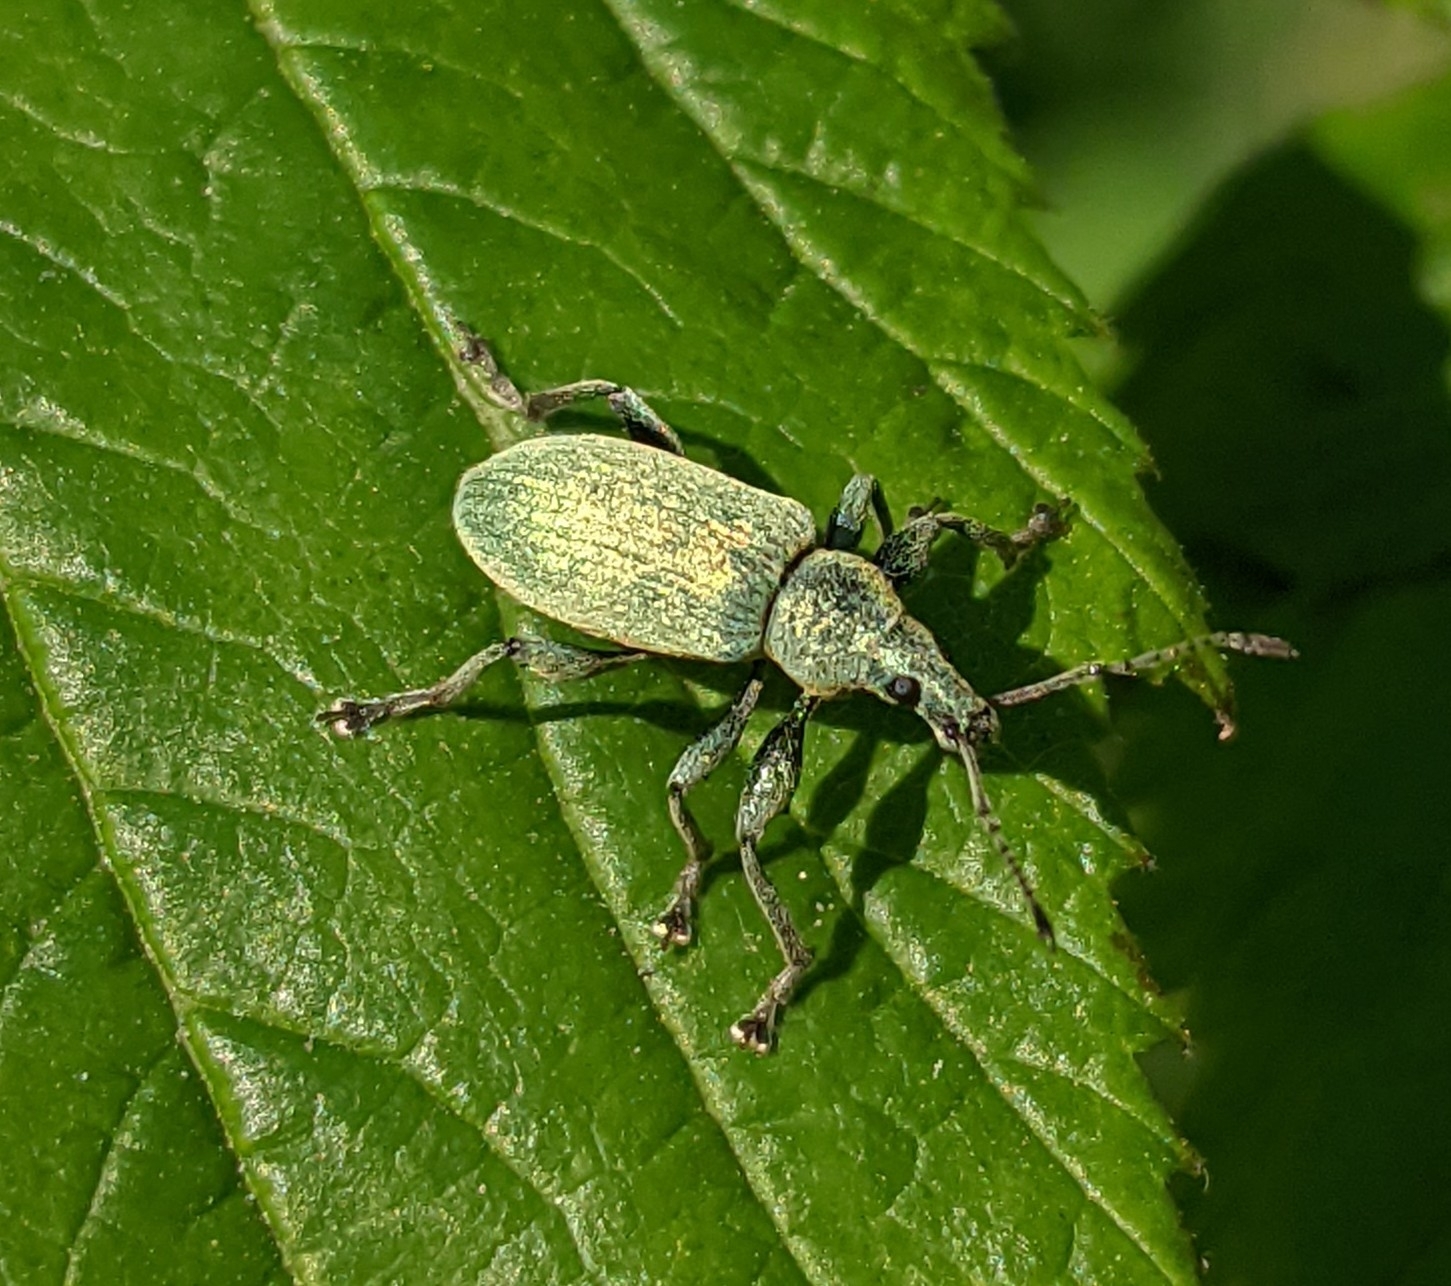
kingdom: Animalia
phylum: Arthropoda
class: Insecta
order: Coleoptera
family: Curculionidae
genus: Phyllobius
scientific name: Phyllobius pomaceus
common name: Green nettle weevil
